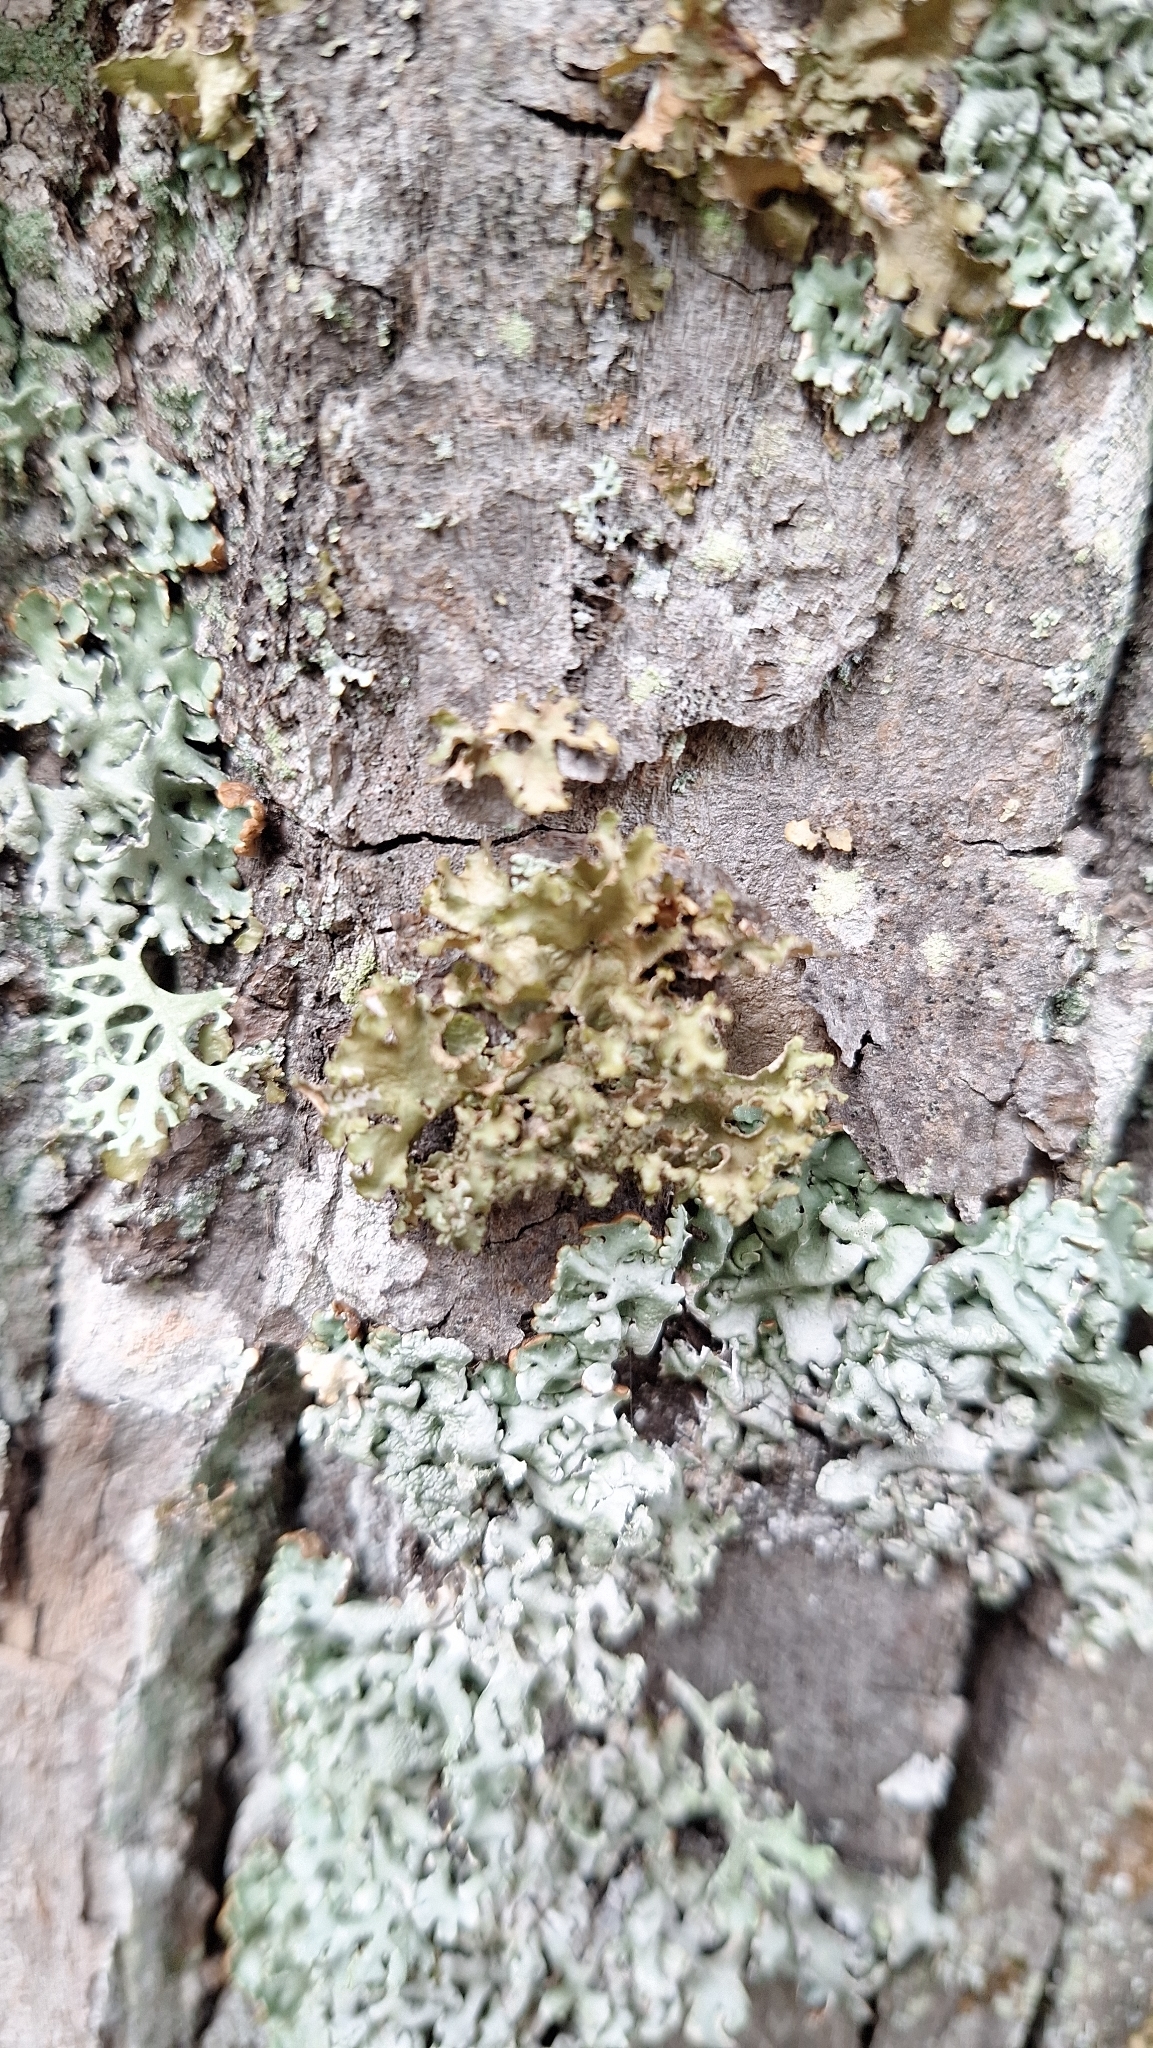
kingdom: Fungi
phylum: Ascomycota
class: Lecanoromycetes
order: Lecanorales
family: Parmeliaceae
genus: Nephromopsis
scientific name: Nephromopsis chlorophylla
